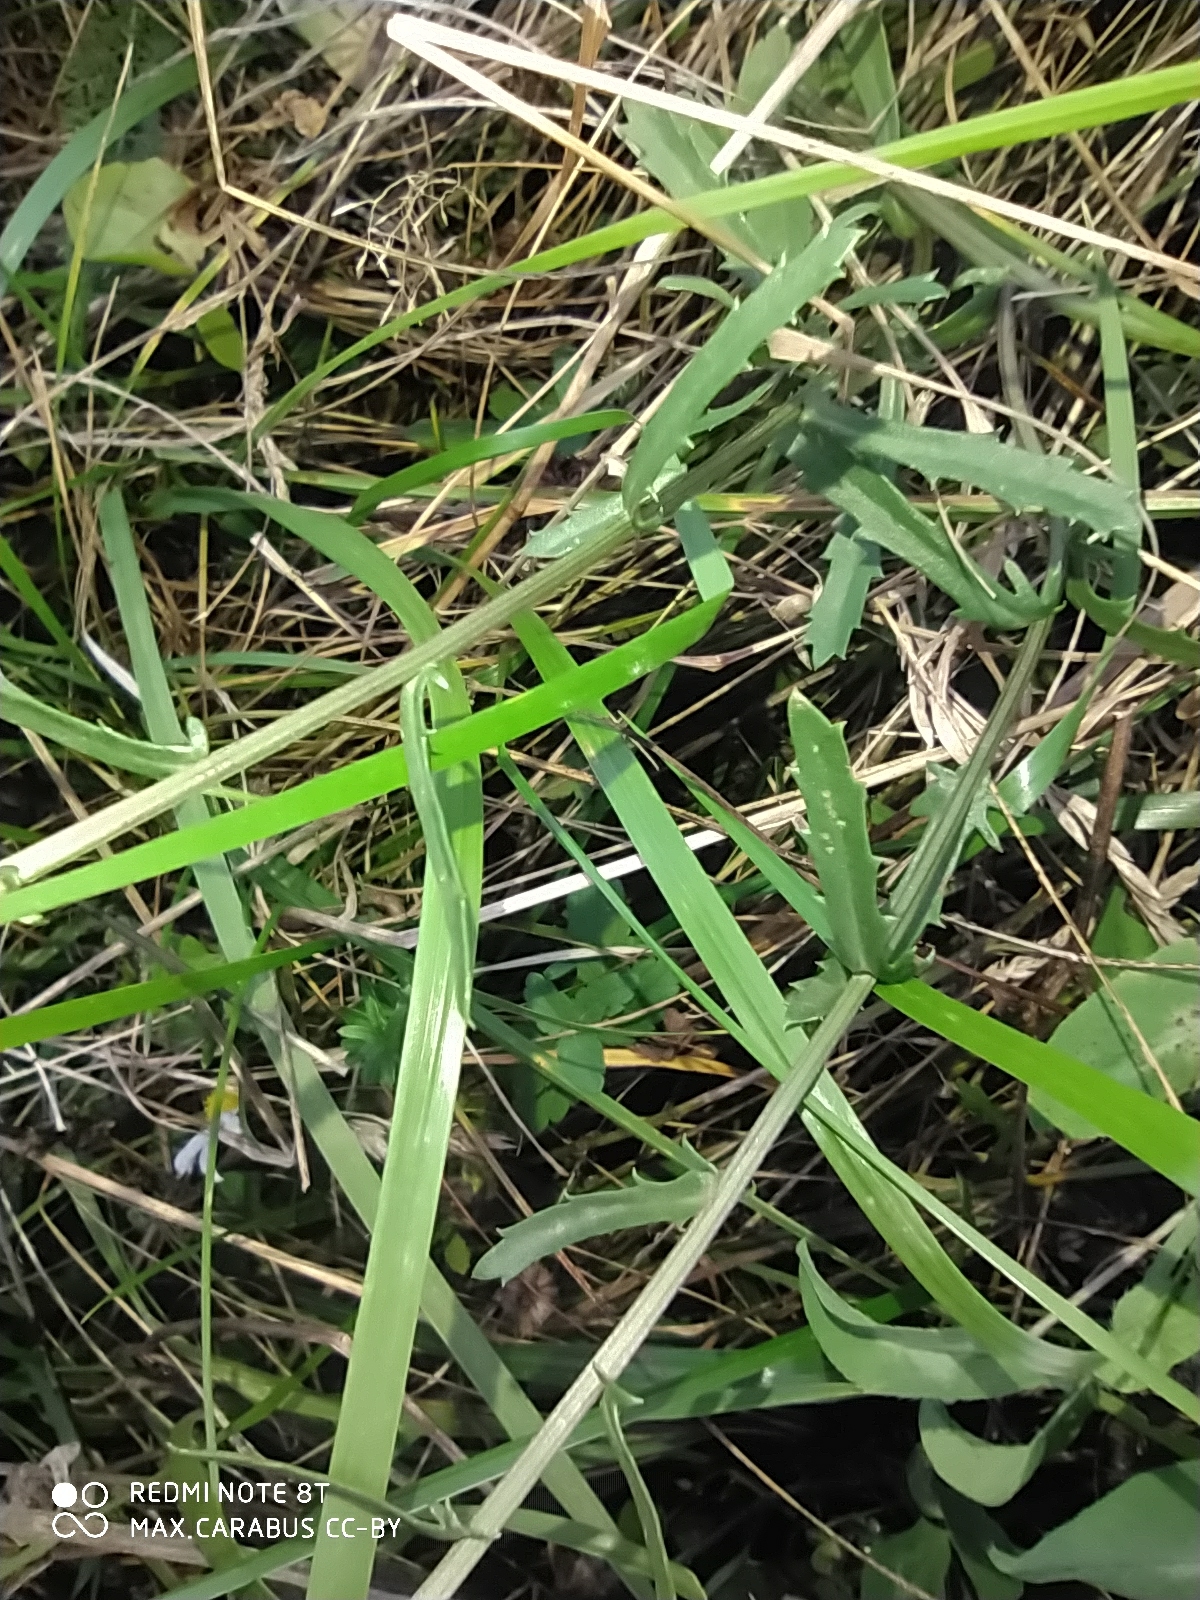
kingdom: Plantae
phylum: Tracheophyta
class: Magnoliopsida
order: Asterales
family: Asteraceae
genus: Leucanthemum
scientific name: Leucanthemum vulgare
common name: Oxeye daisy
